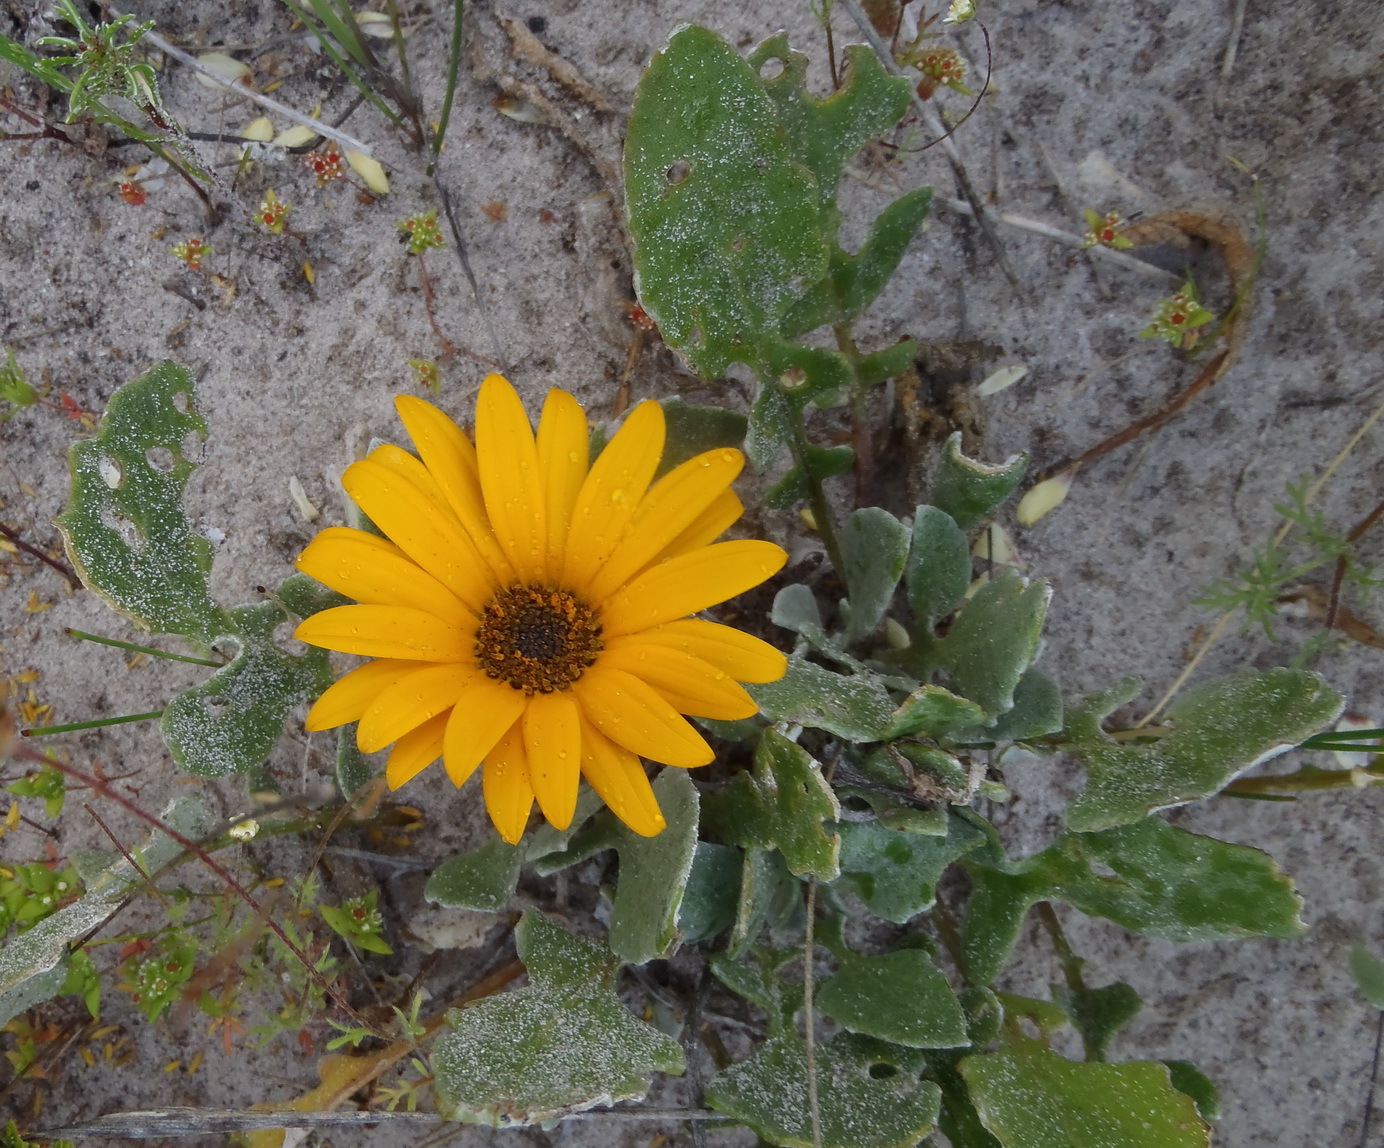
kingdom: Plantae
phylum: Tracheophyta
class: Magnoliopsida
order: Asterales
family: Asteraceae
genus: Arctotis
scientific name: Arctotis acaulis
